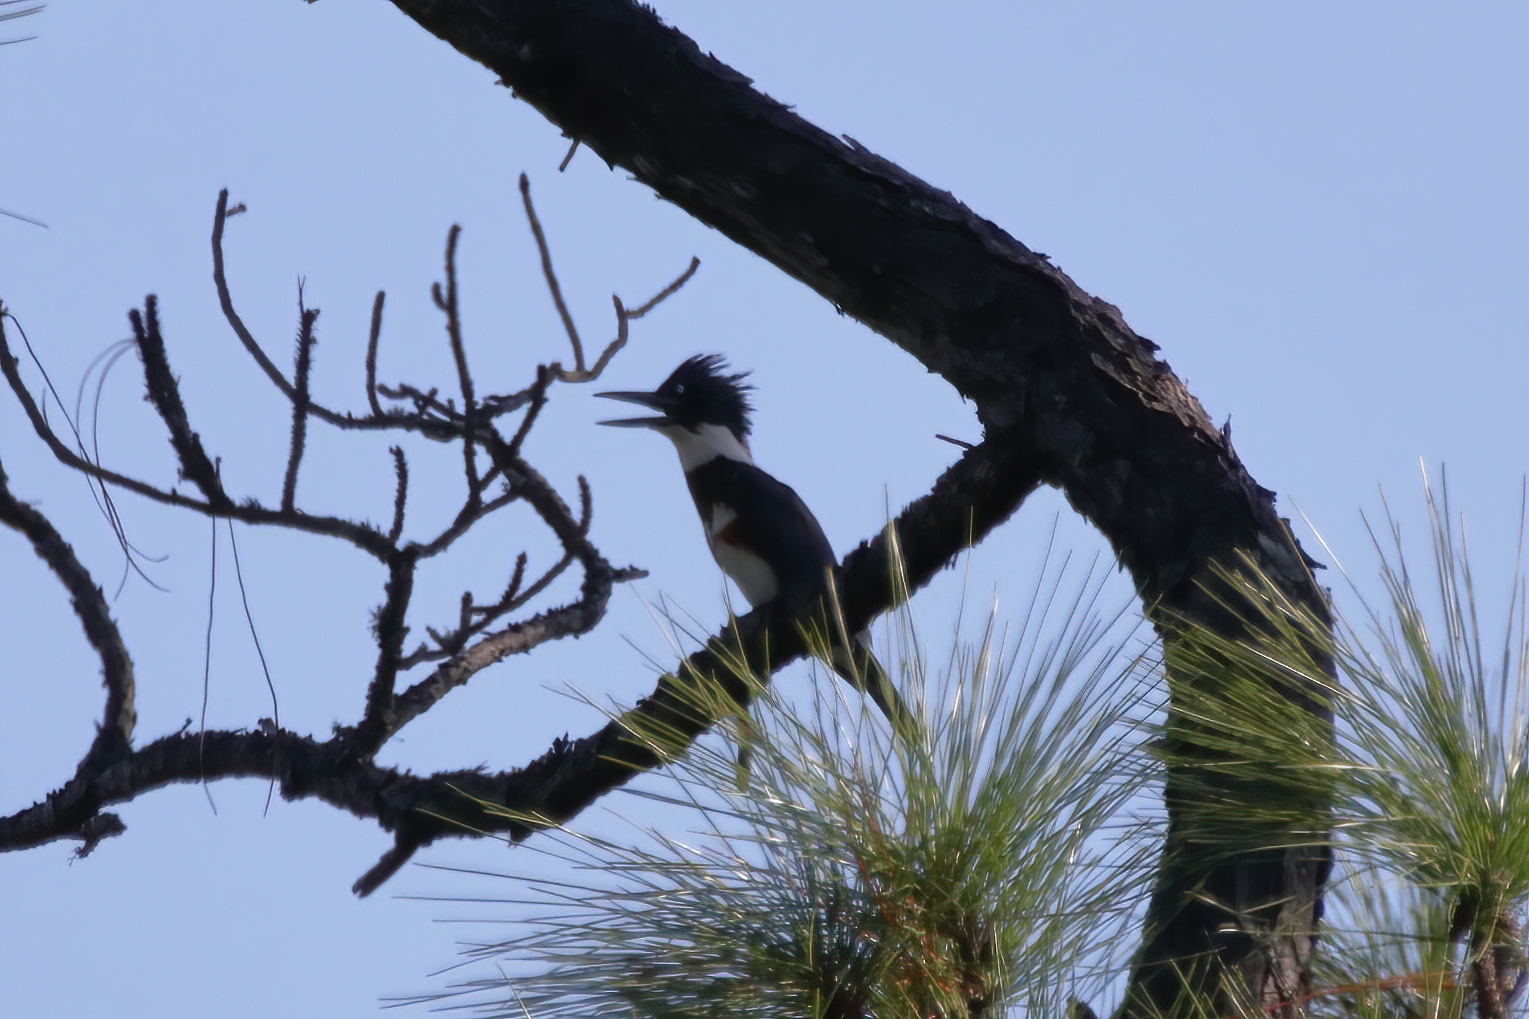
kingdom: Animalia
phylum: Chordata
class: Aves
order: Coraciiformes
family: Alcedinidae
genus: Megaceryle
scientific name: Megaceryle alcyon
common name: Belted kingfisher
